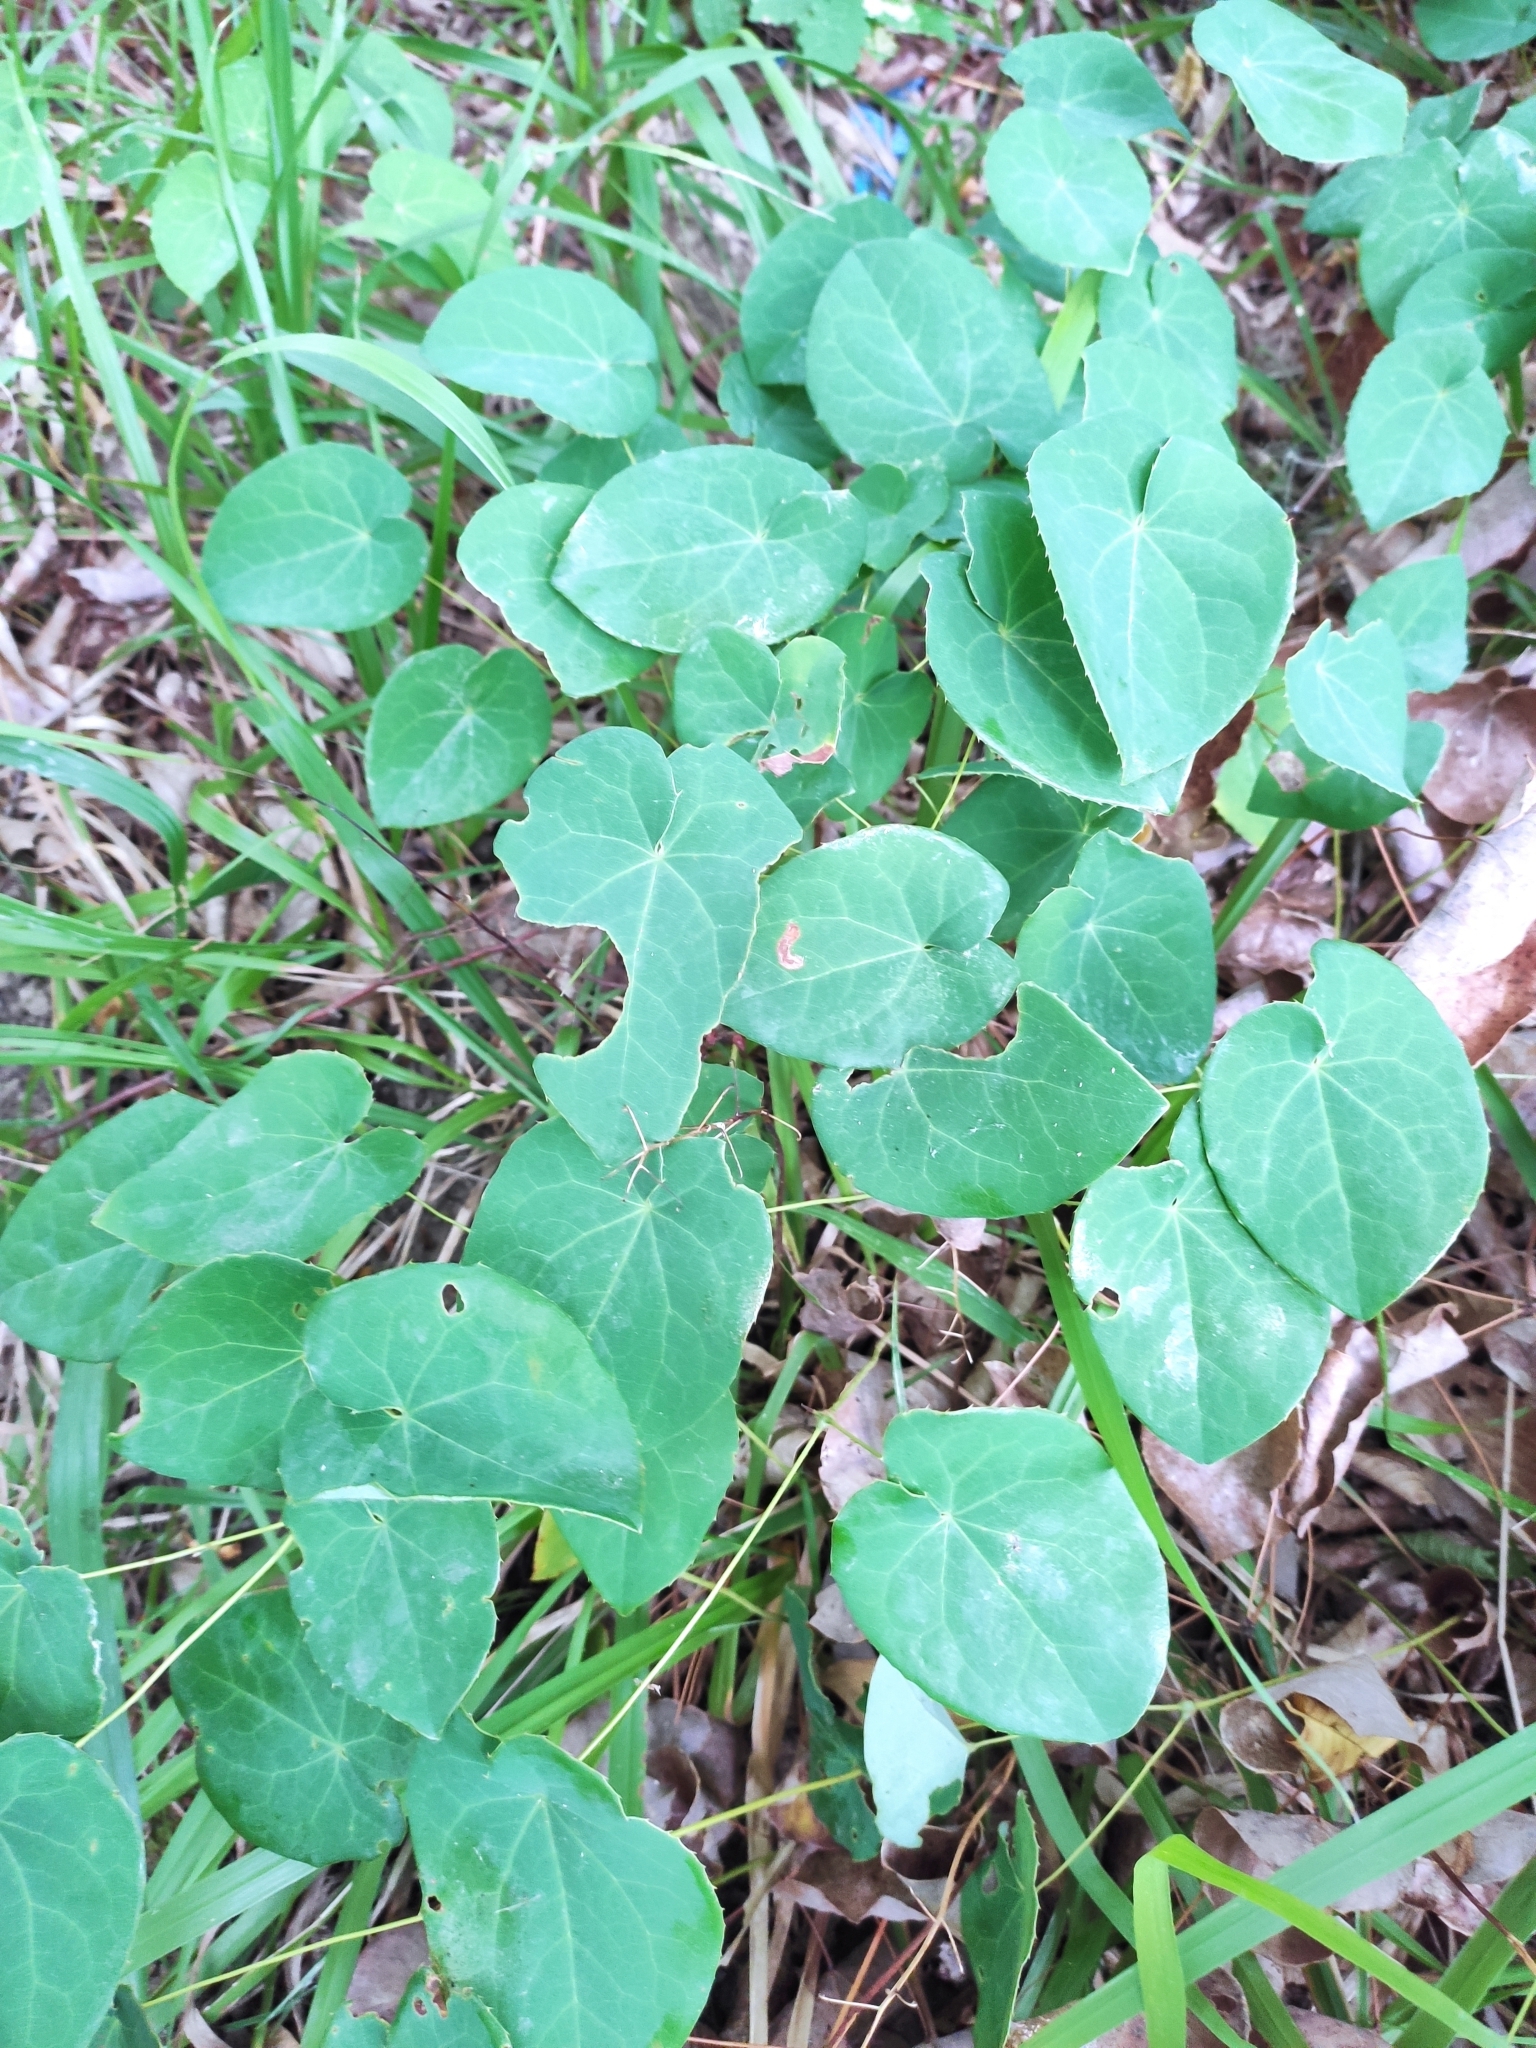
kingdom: Plantae
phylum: Tracheophyta
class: Magnoliopsida
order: Ranunculales
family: Berberidaceae
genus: Epimedium
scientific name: Epimedium pinnatum
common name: Caucasian barrenwort
